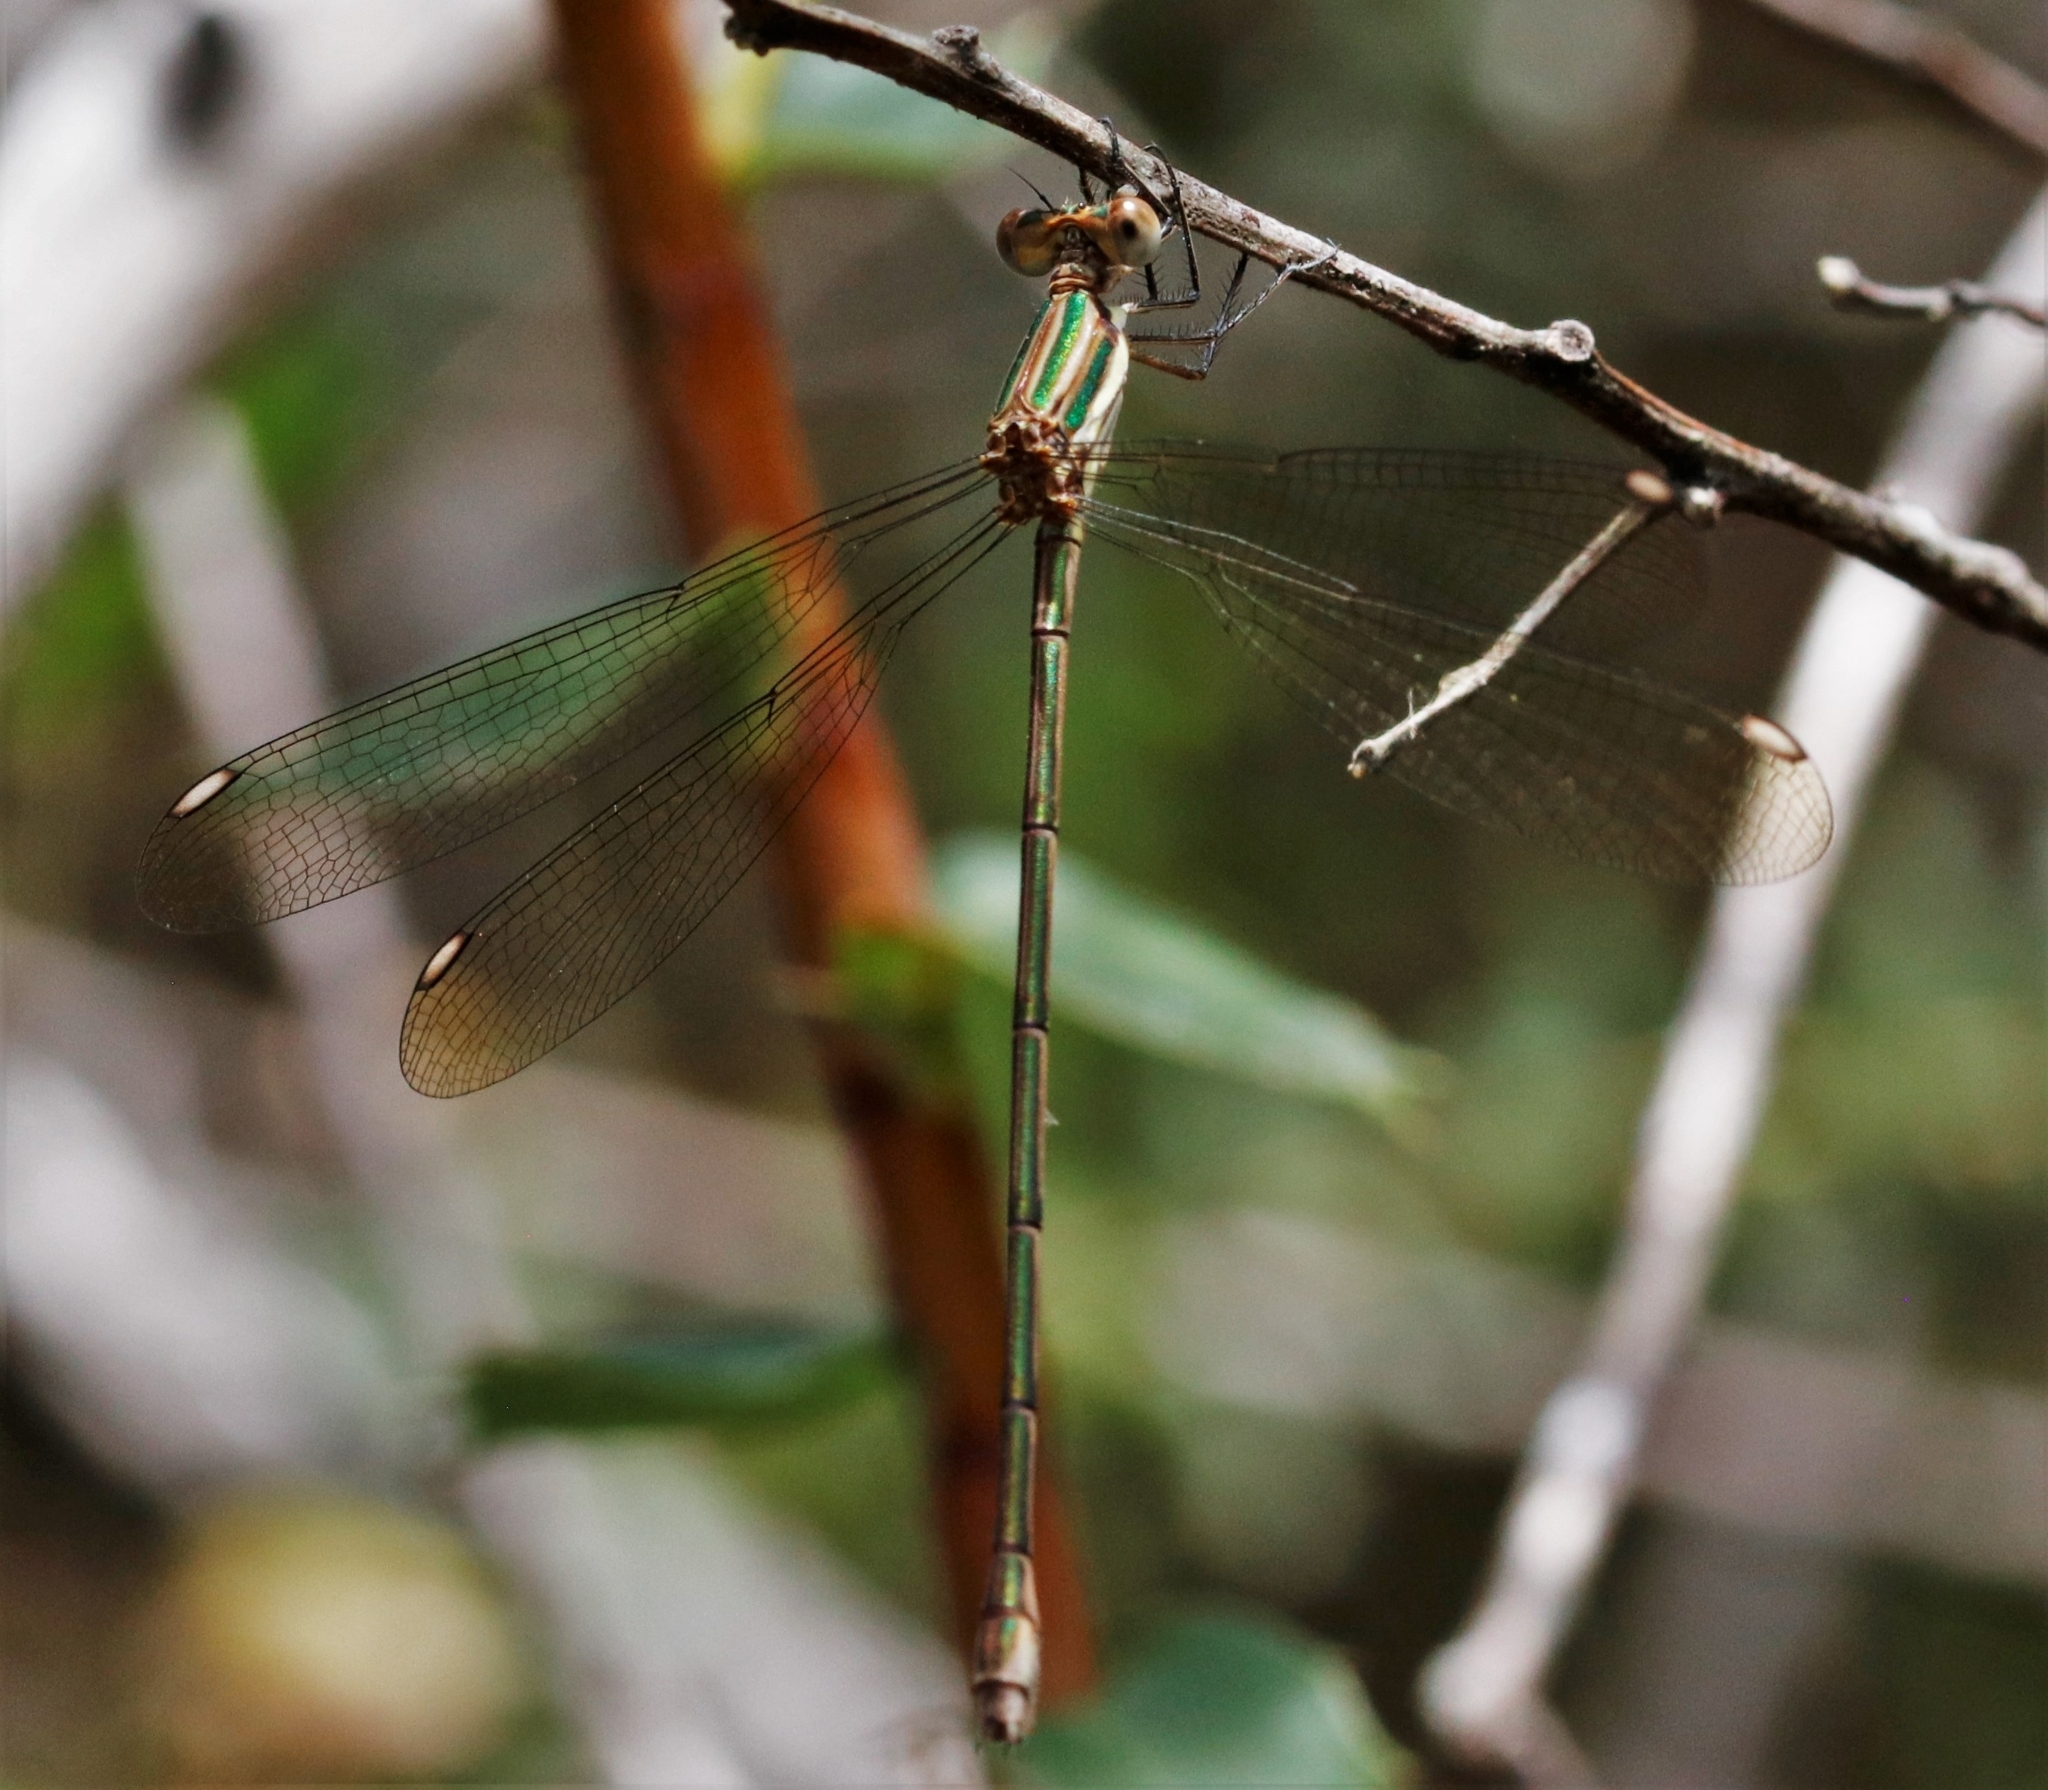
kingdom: Animalia
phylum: Arthropoda
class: Insecta
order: Odonata
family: Lestidae
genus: Lestes
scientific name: Lestes virgatus
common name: Smoky spreadwing
